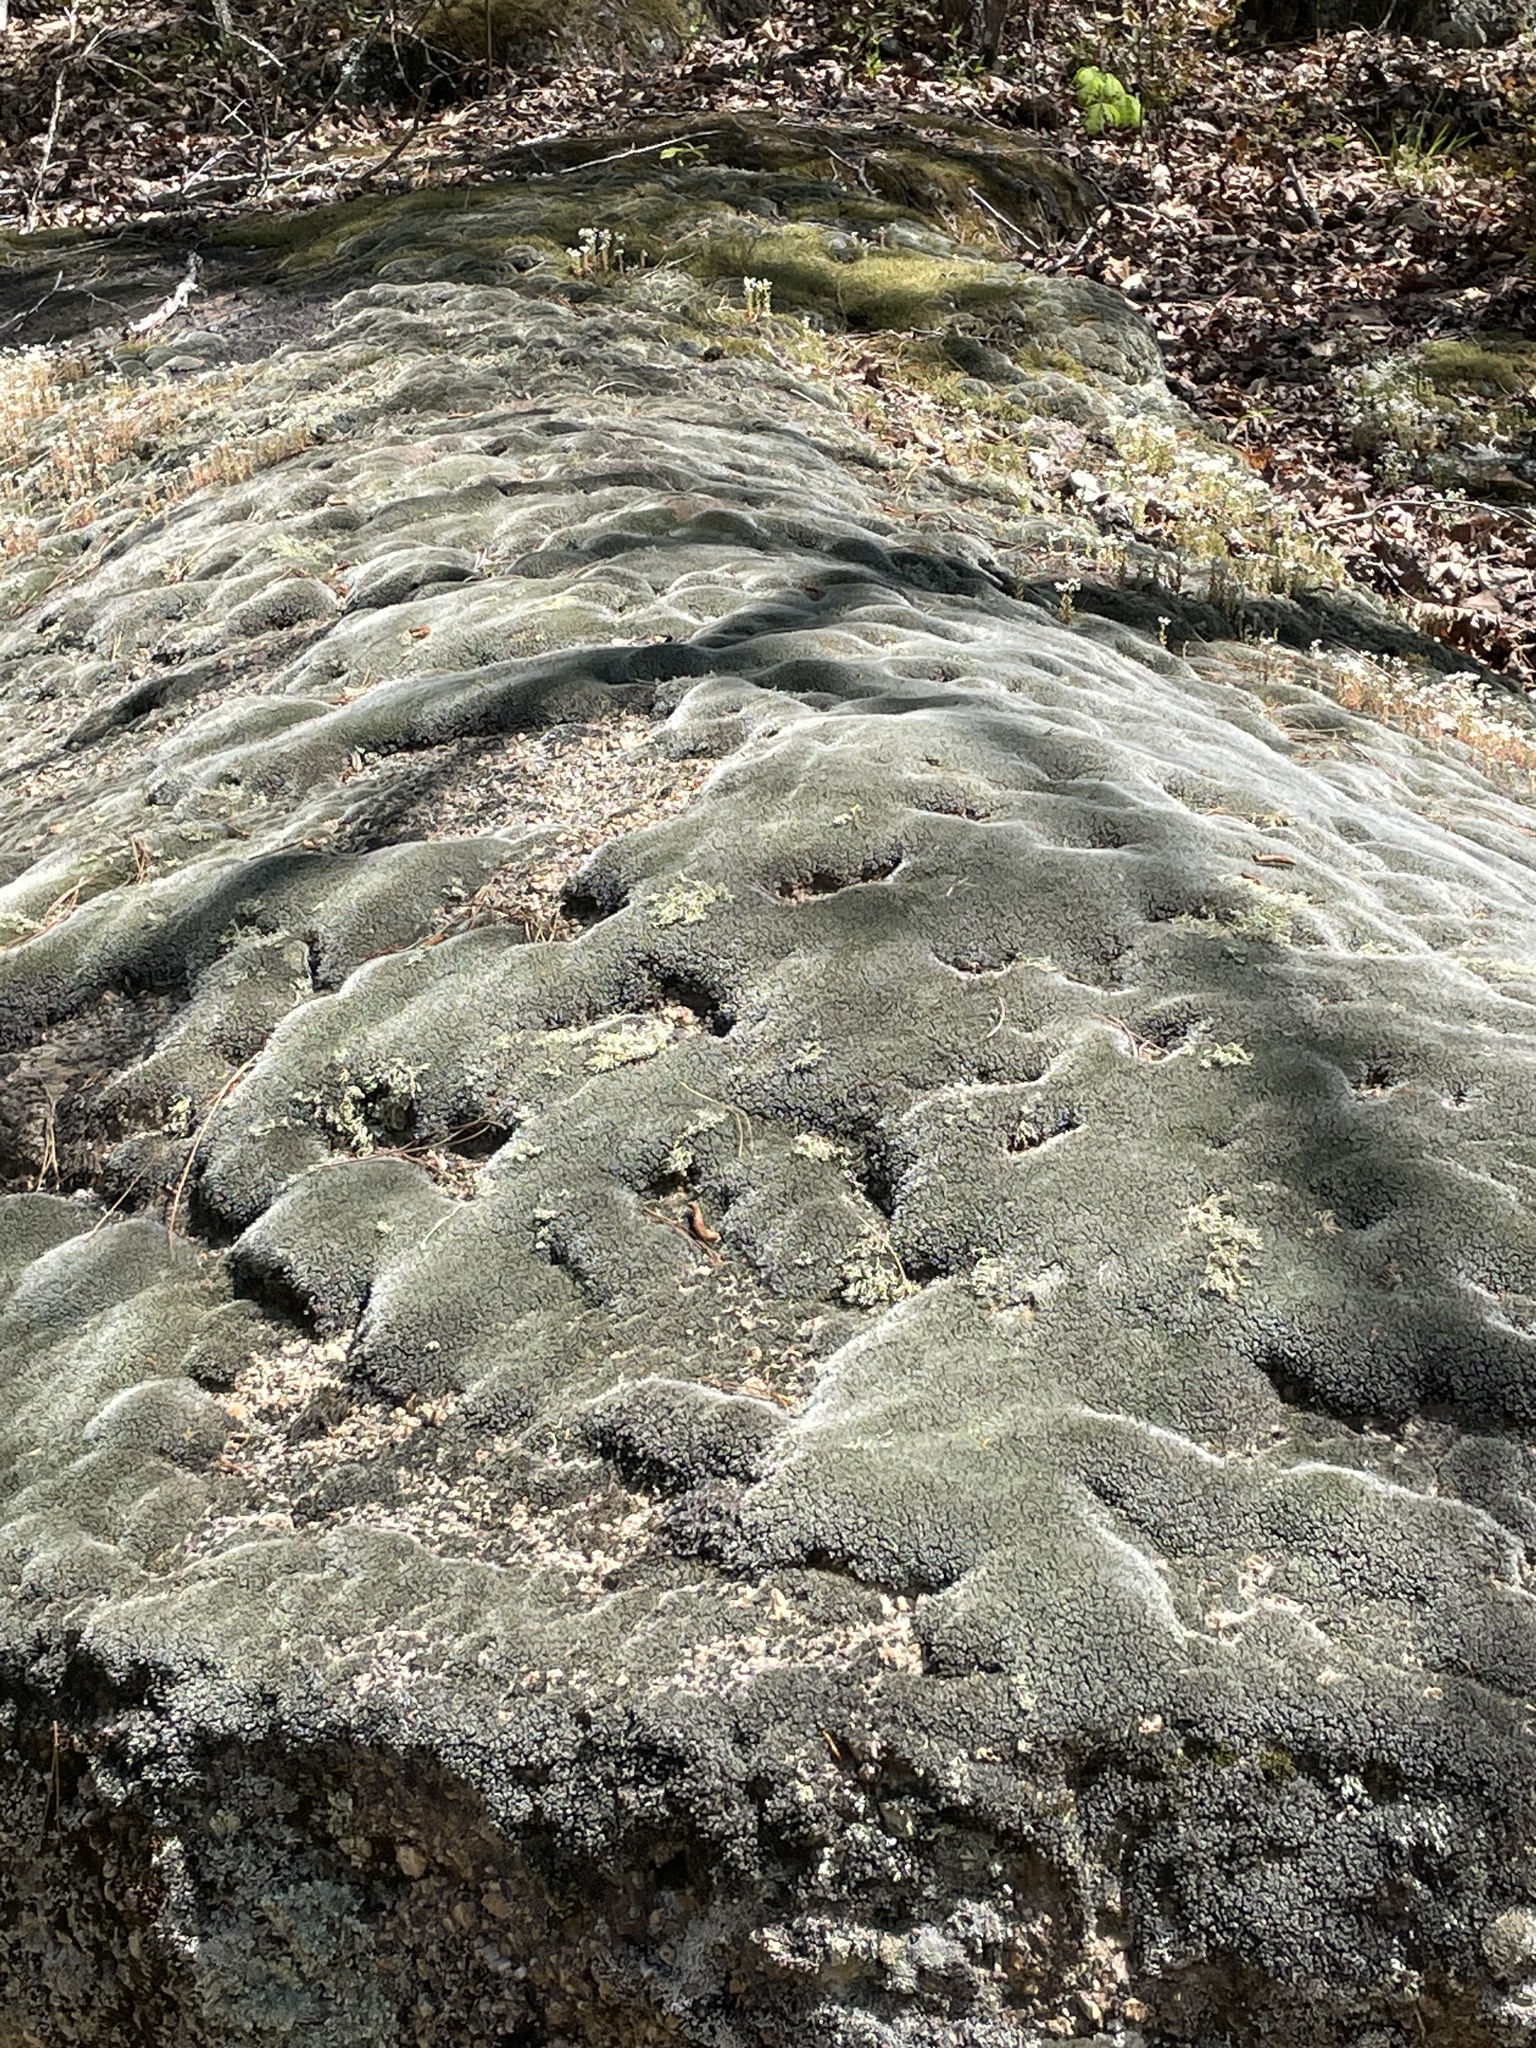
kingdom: Plantae
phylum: Bryophyta
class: Bryopsida
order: Grimmiales
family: Grimmiaceae
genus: Grimmia
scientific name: Grimmia laevigata
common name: Hoary grimmia
